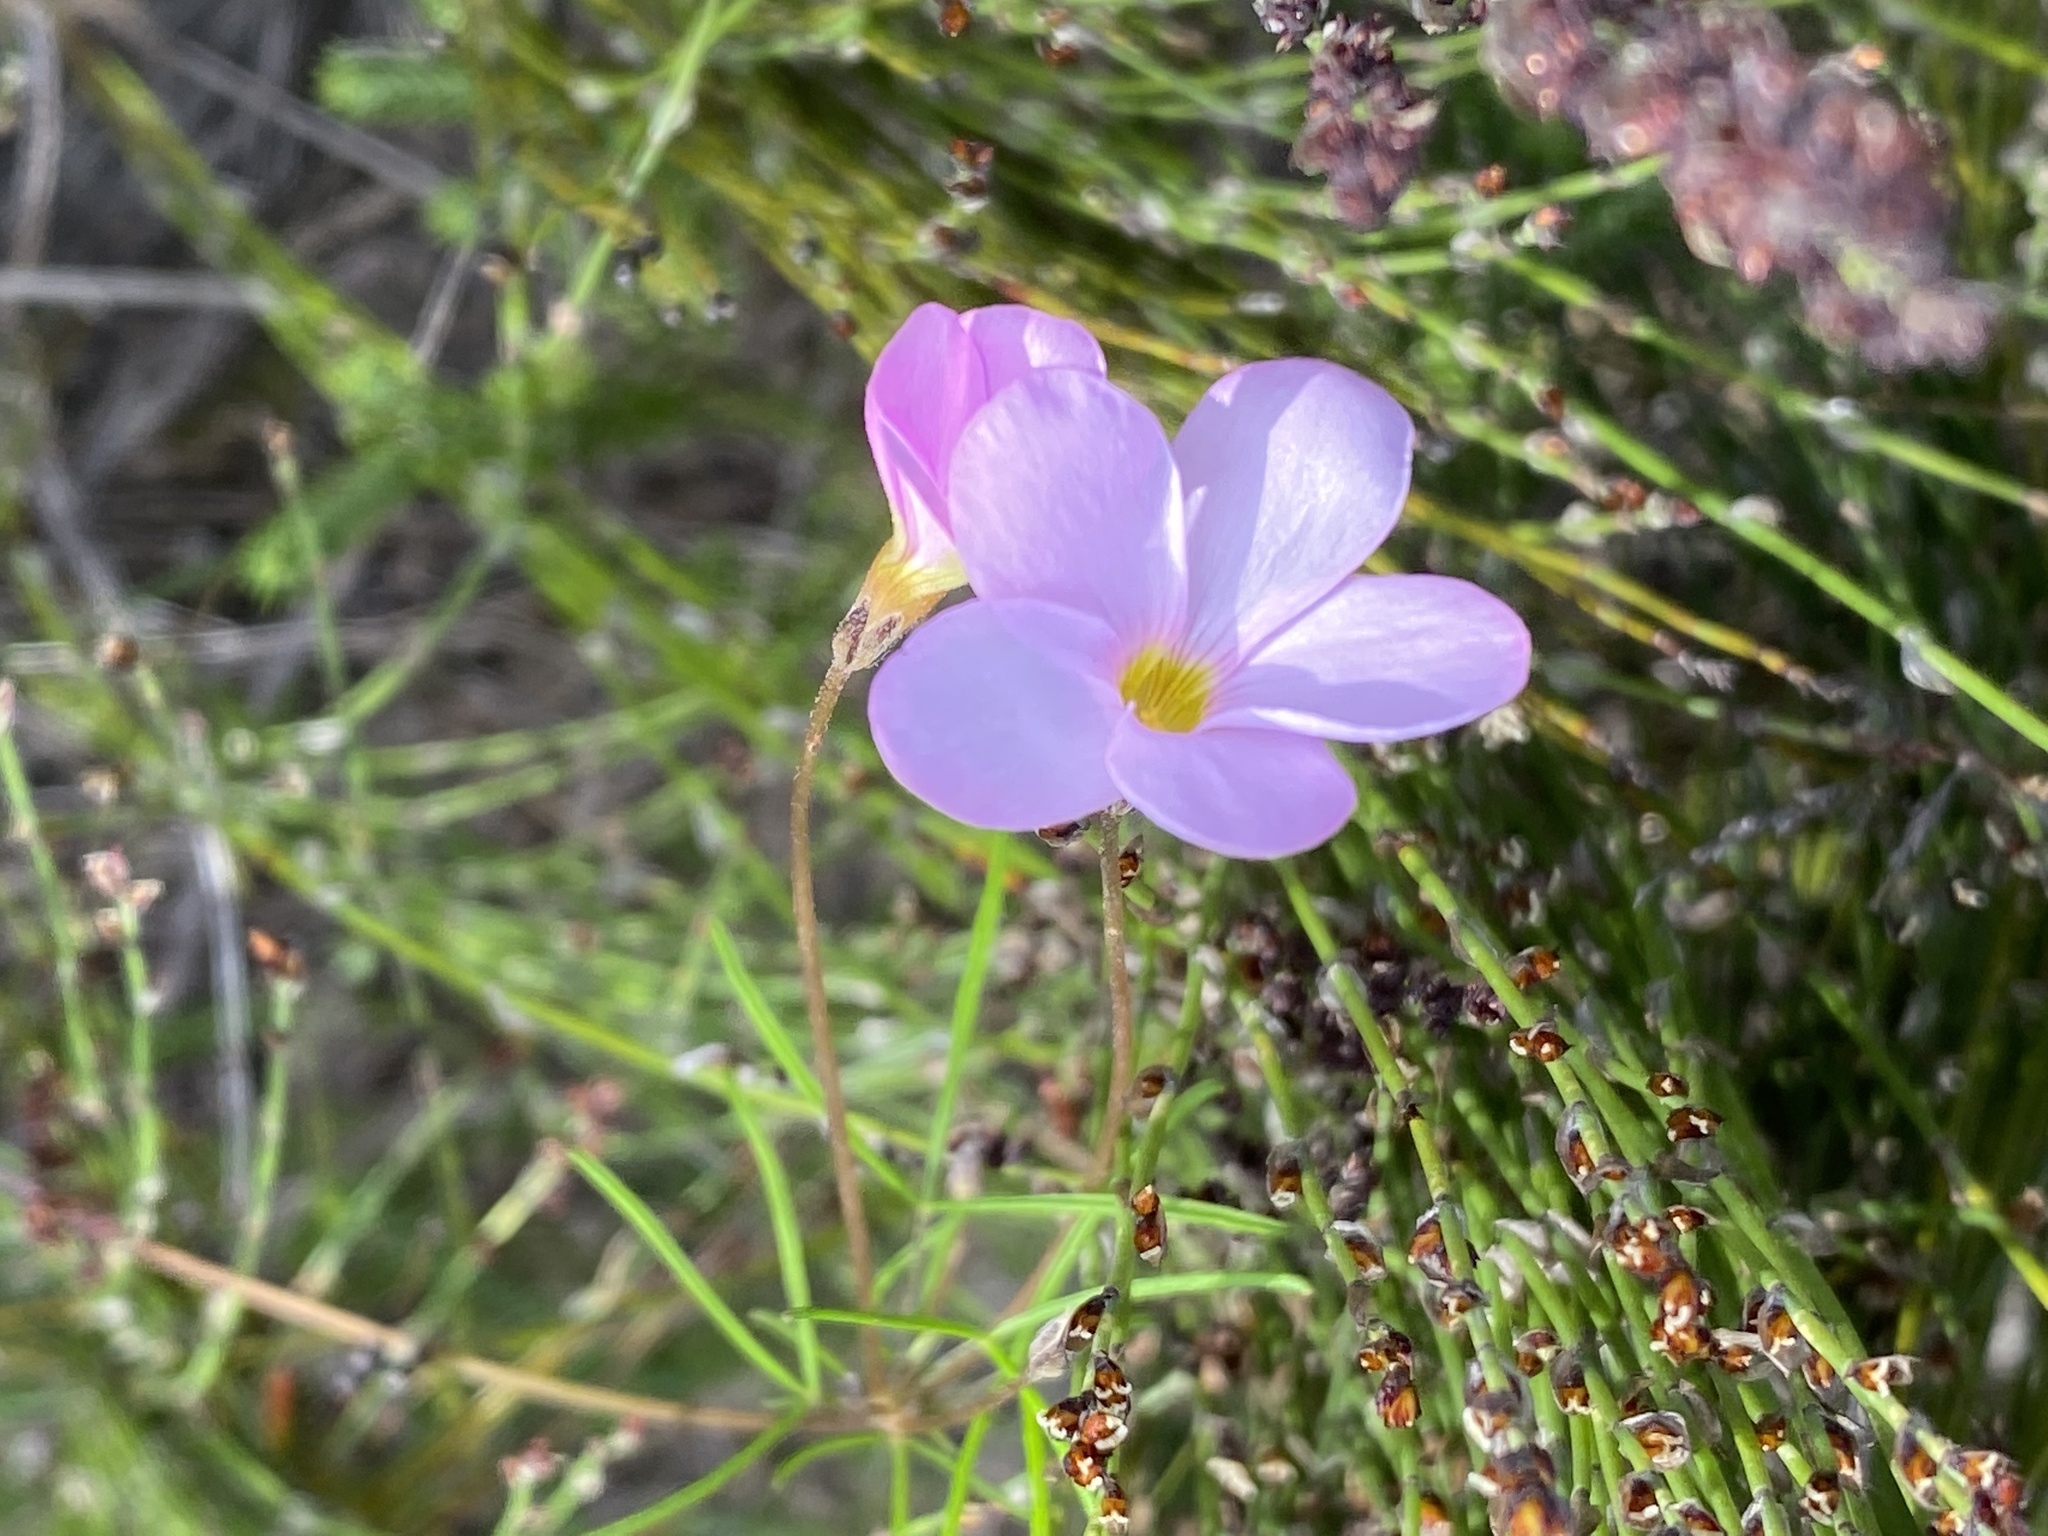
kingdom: Plantae
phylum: Tracheophyta
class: Magnoliopsida
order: Oxalidales
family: Oxalidaceae
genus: Oxalis
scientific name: Oxalis polyphylla
